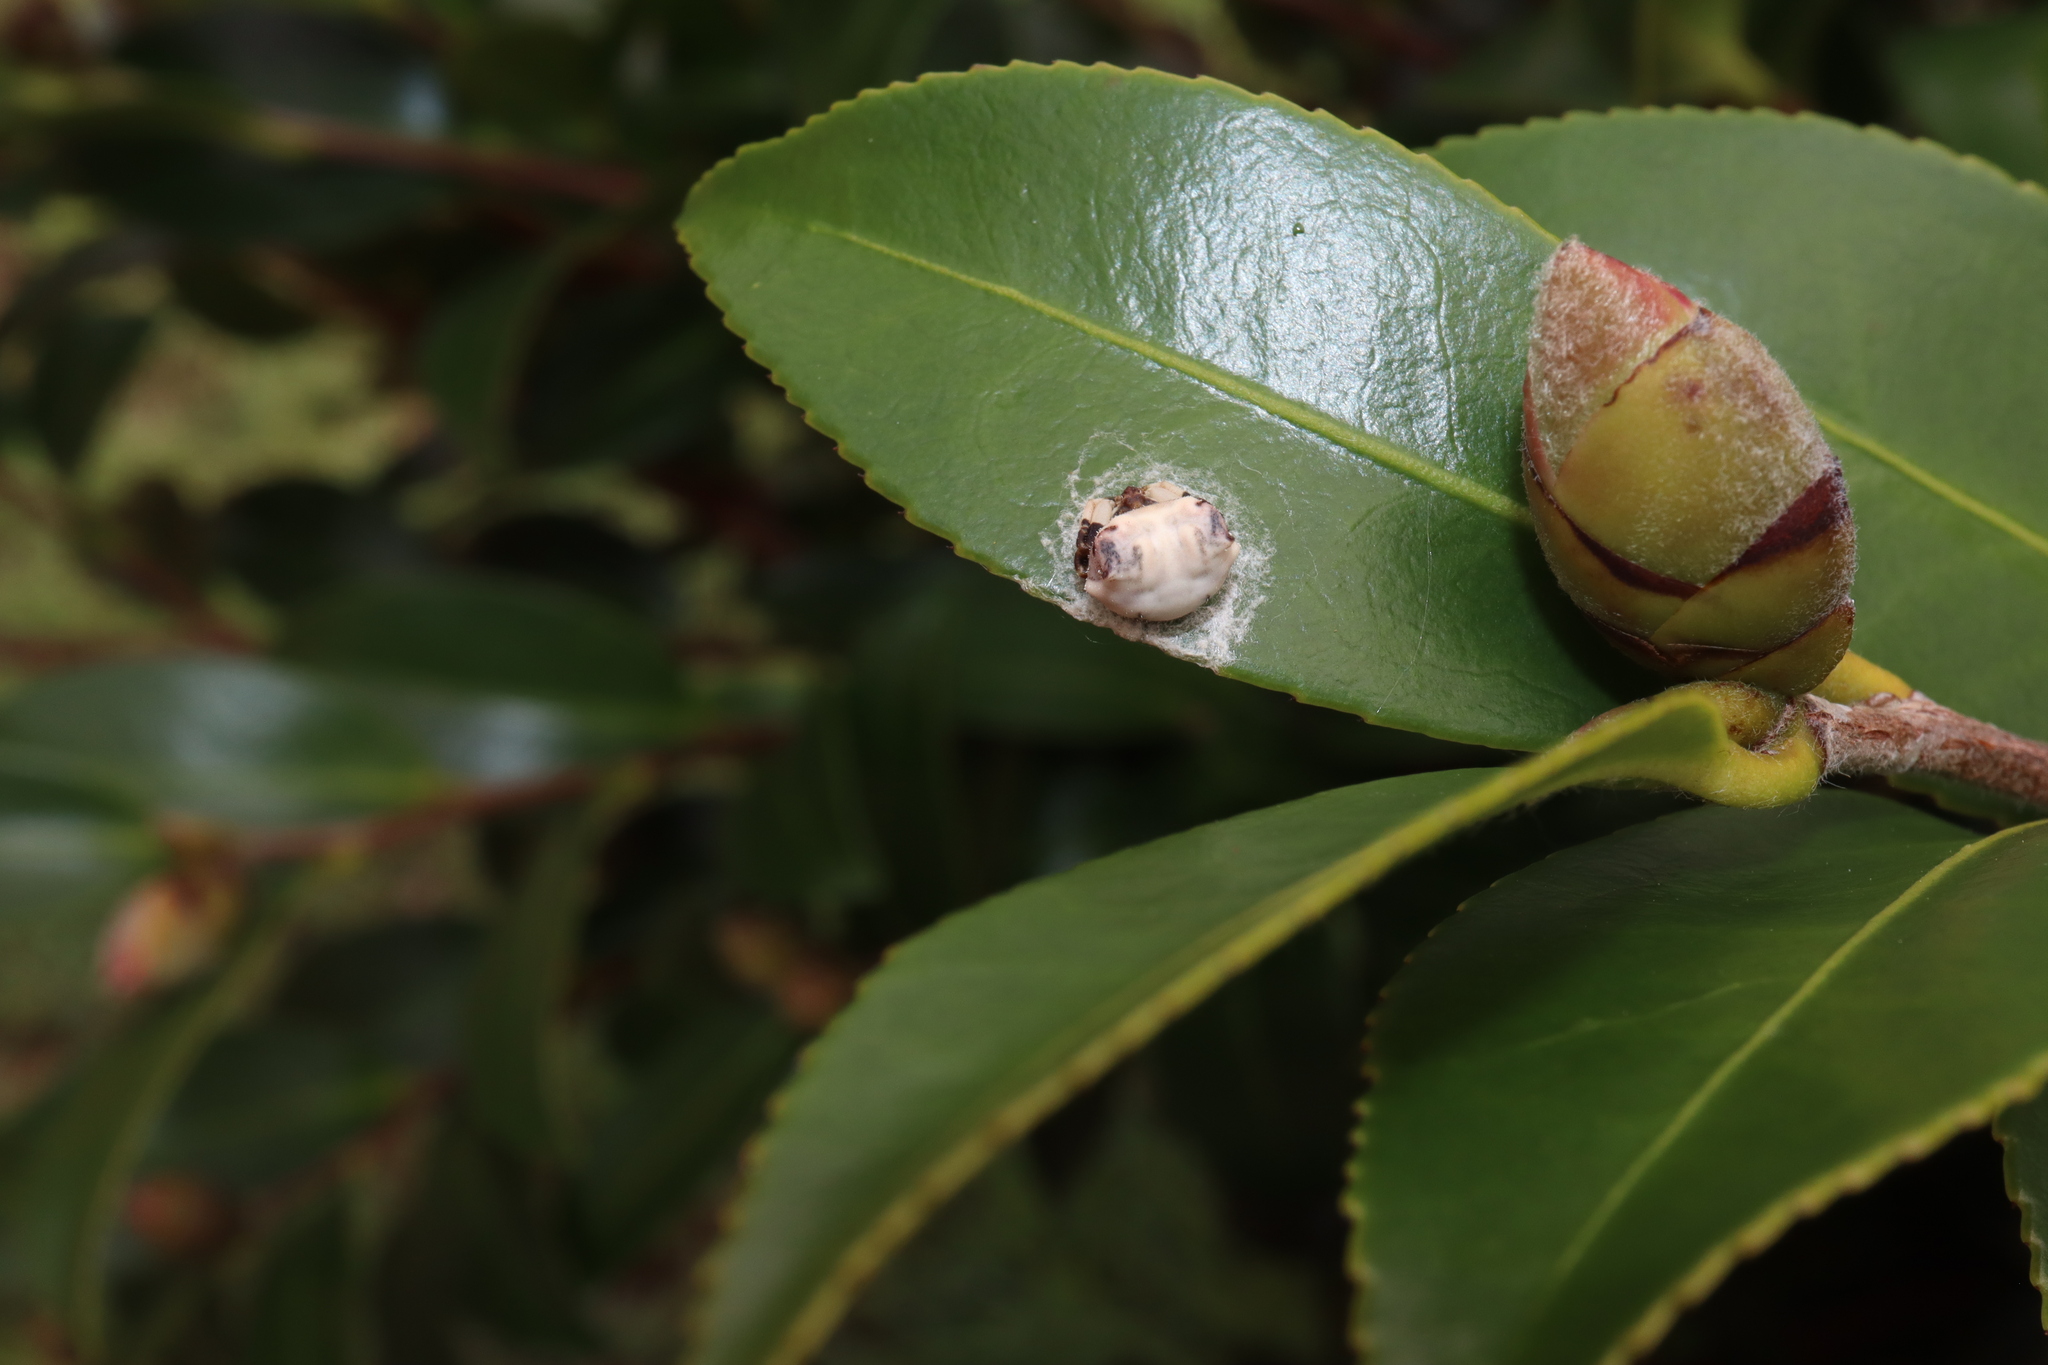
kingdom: Animalia
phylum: Arthropoda
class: Arachnida
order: Araneae
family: Araneidae
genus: Celaenia
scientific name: Celaenia excavata
